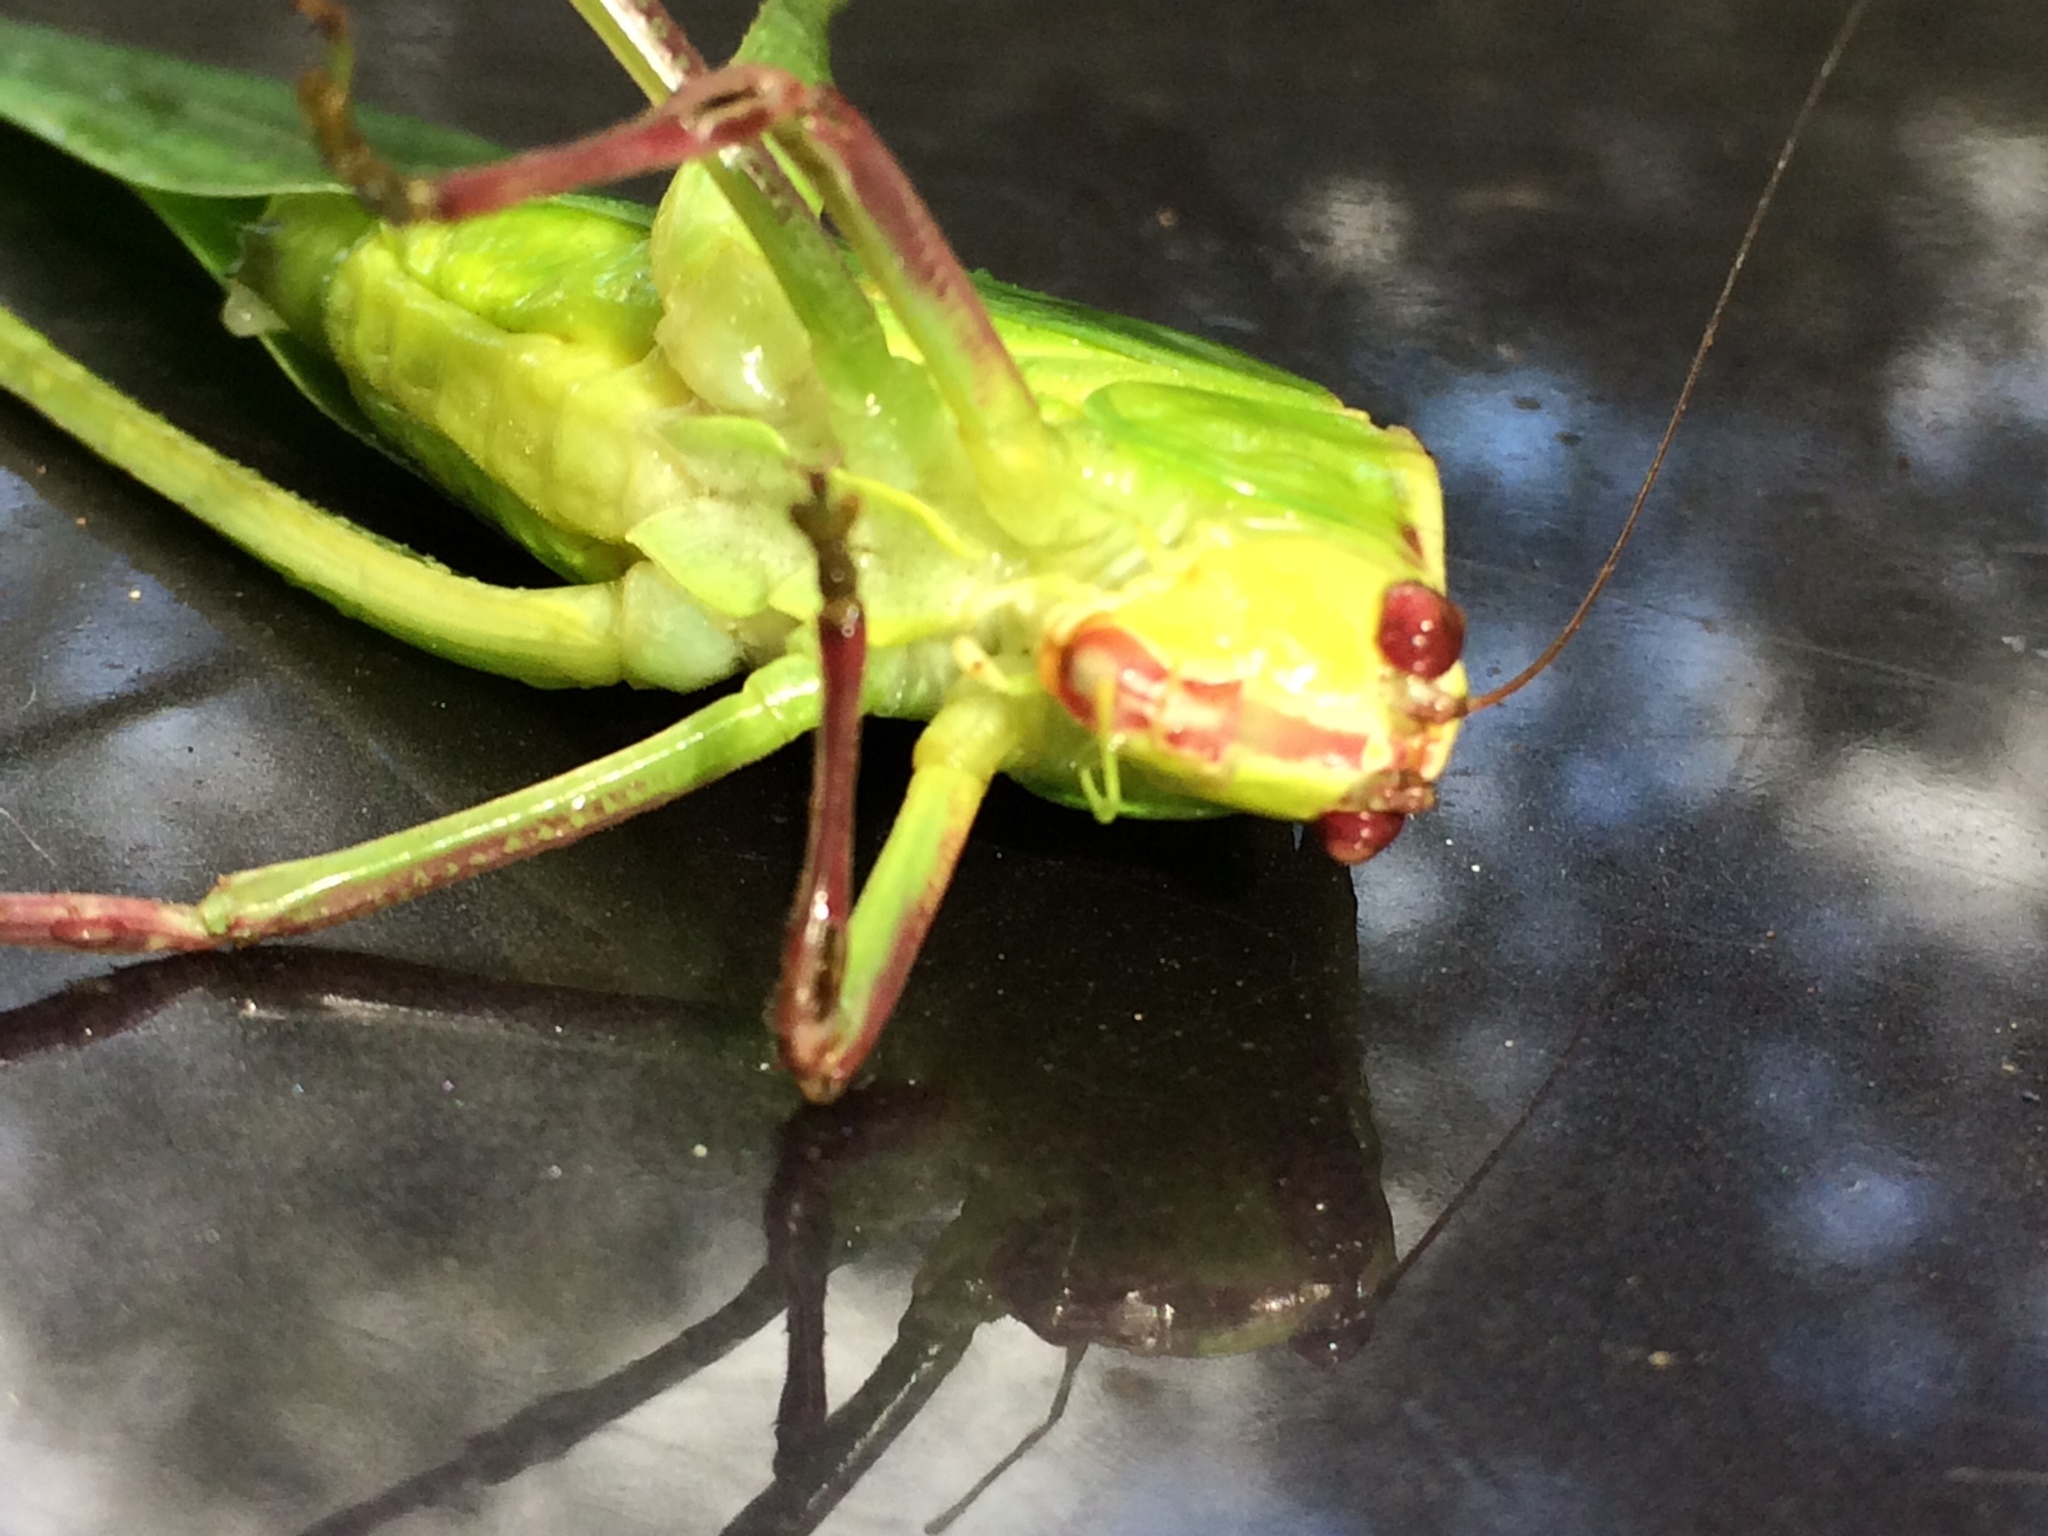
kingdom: Animalia
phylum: Arthropoda
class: Insecta
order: Orthoptera
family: Tettigoniidae
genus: Stilpnochlora
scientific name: Stilpnochlora couloniana
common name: Giant katydid
